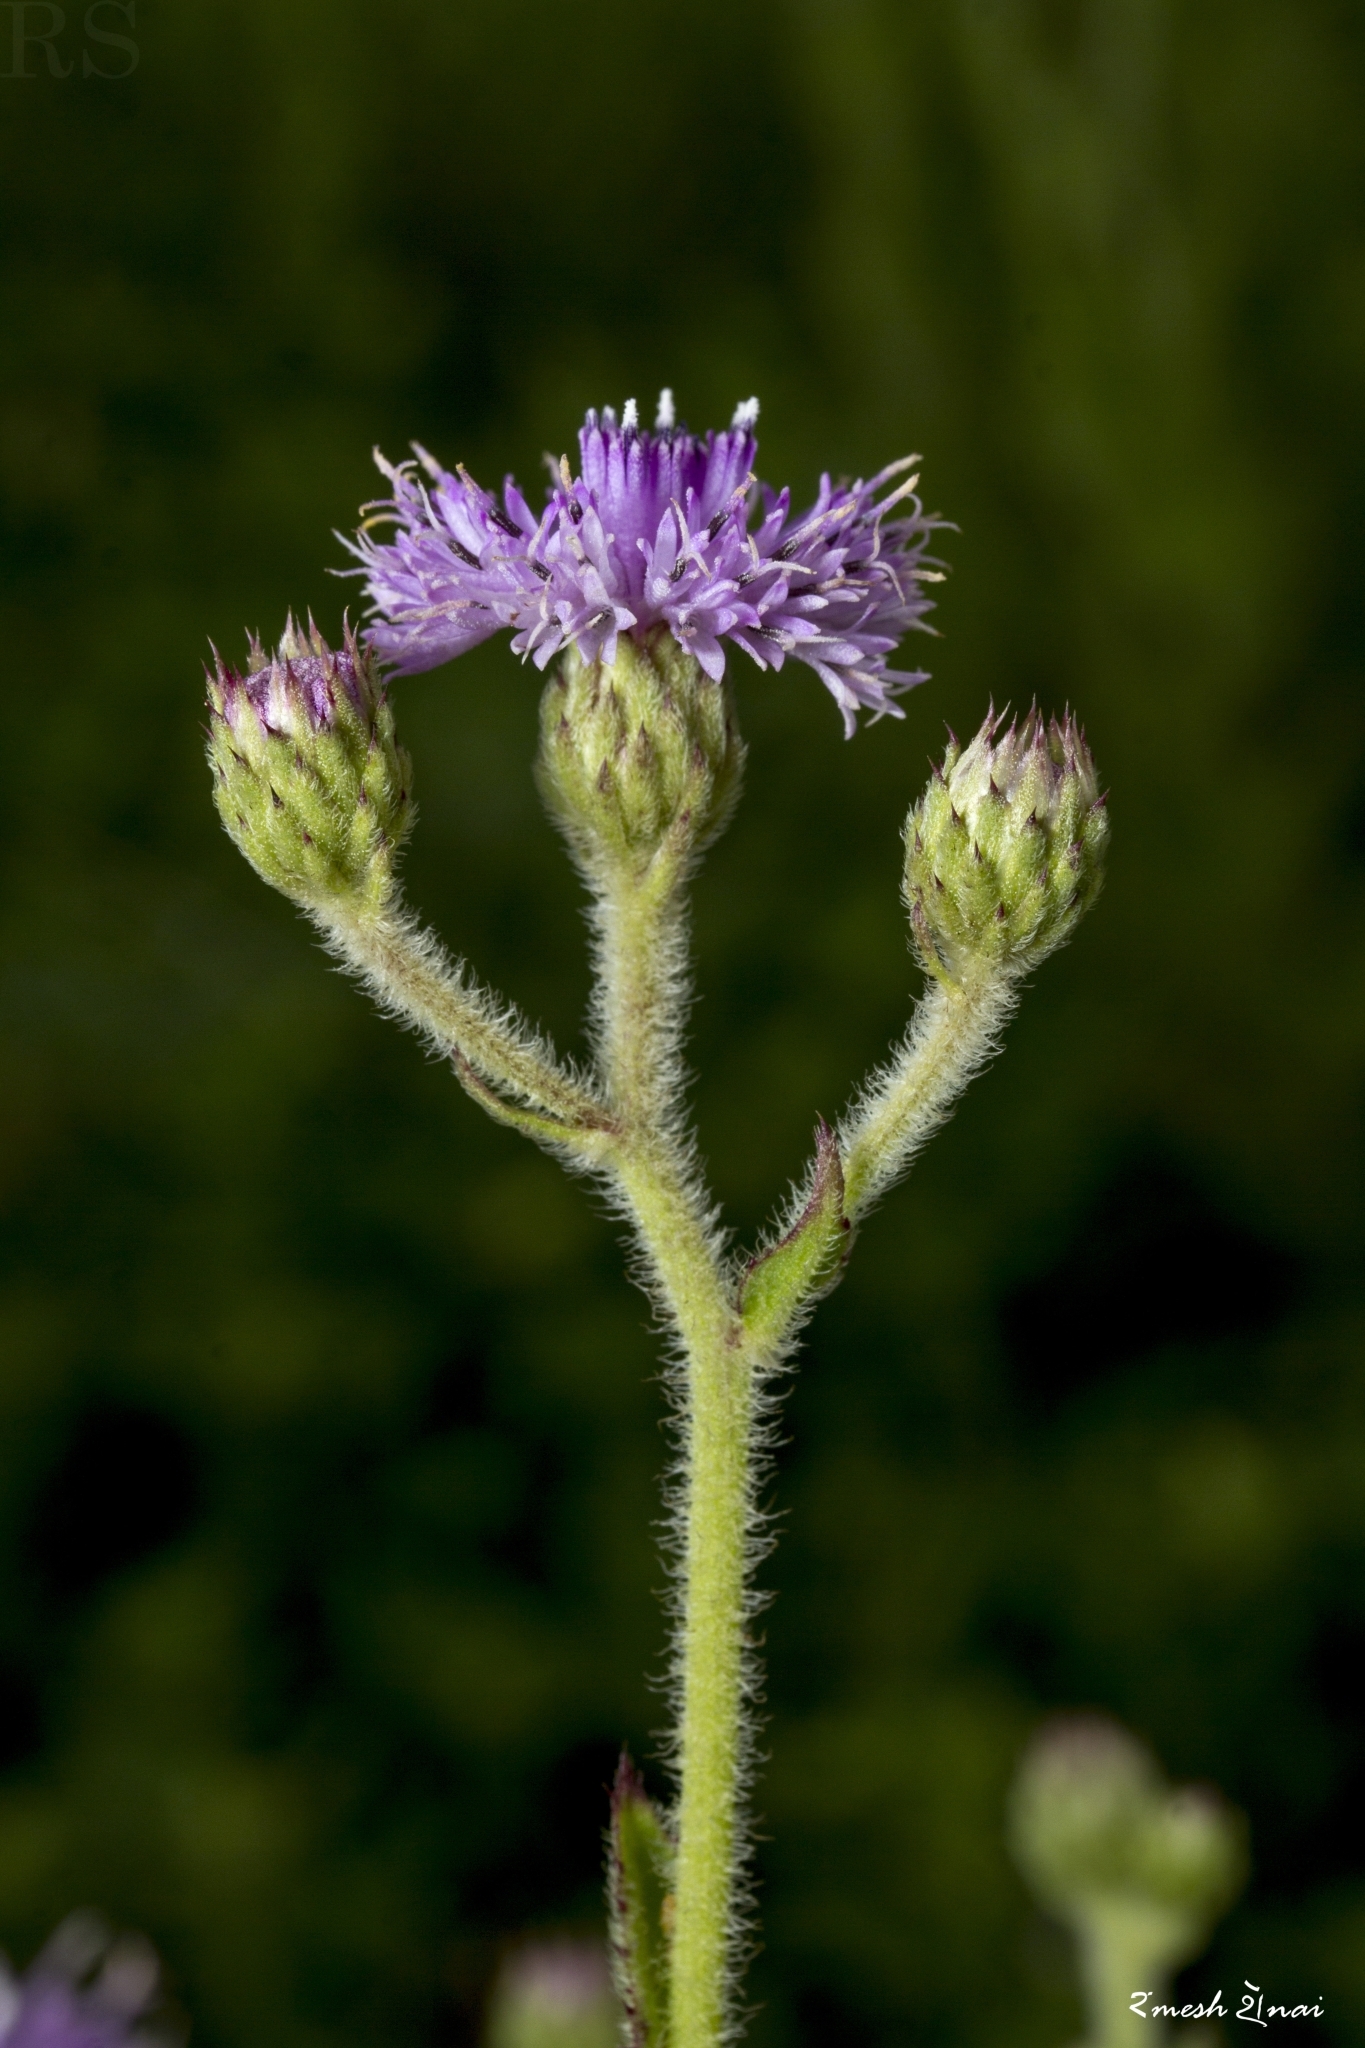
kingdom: Plantae
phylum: Tracheophyta
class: Magnoliopsida
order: Asterales
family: Asteraceae
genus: Adenoon
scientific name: Adenoon indicum
